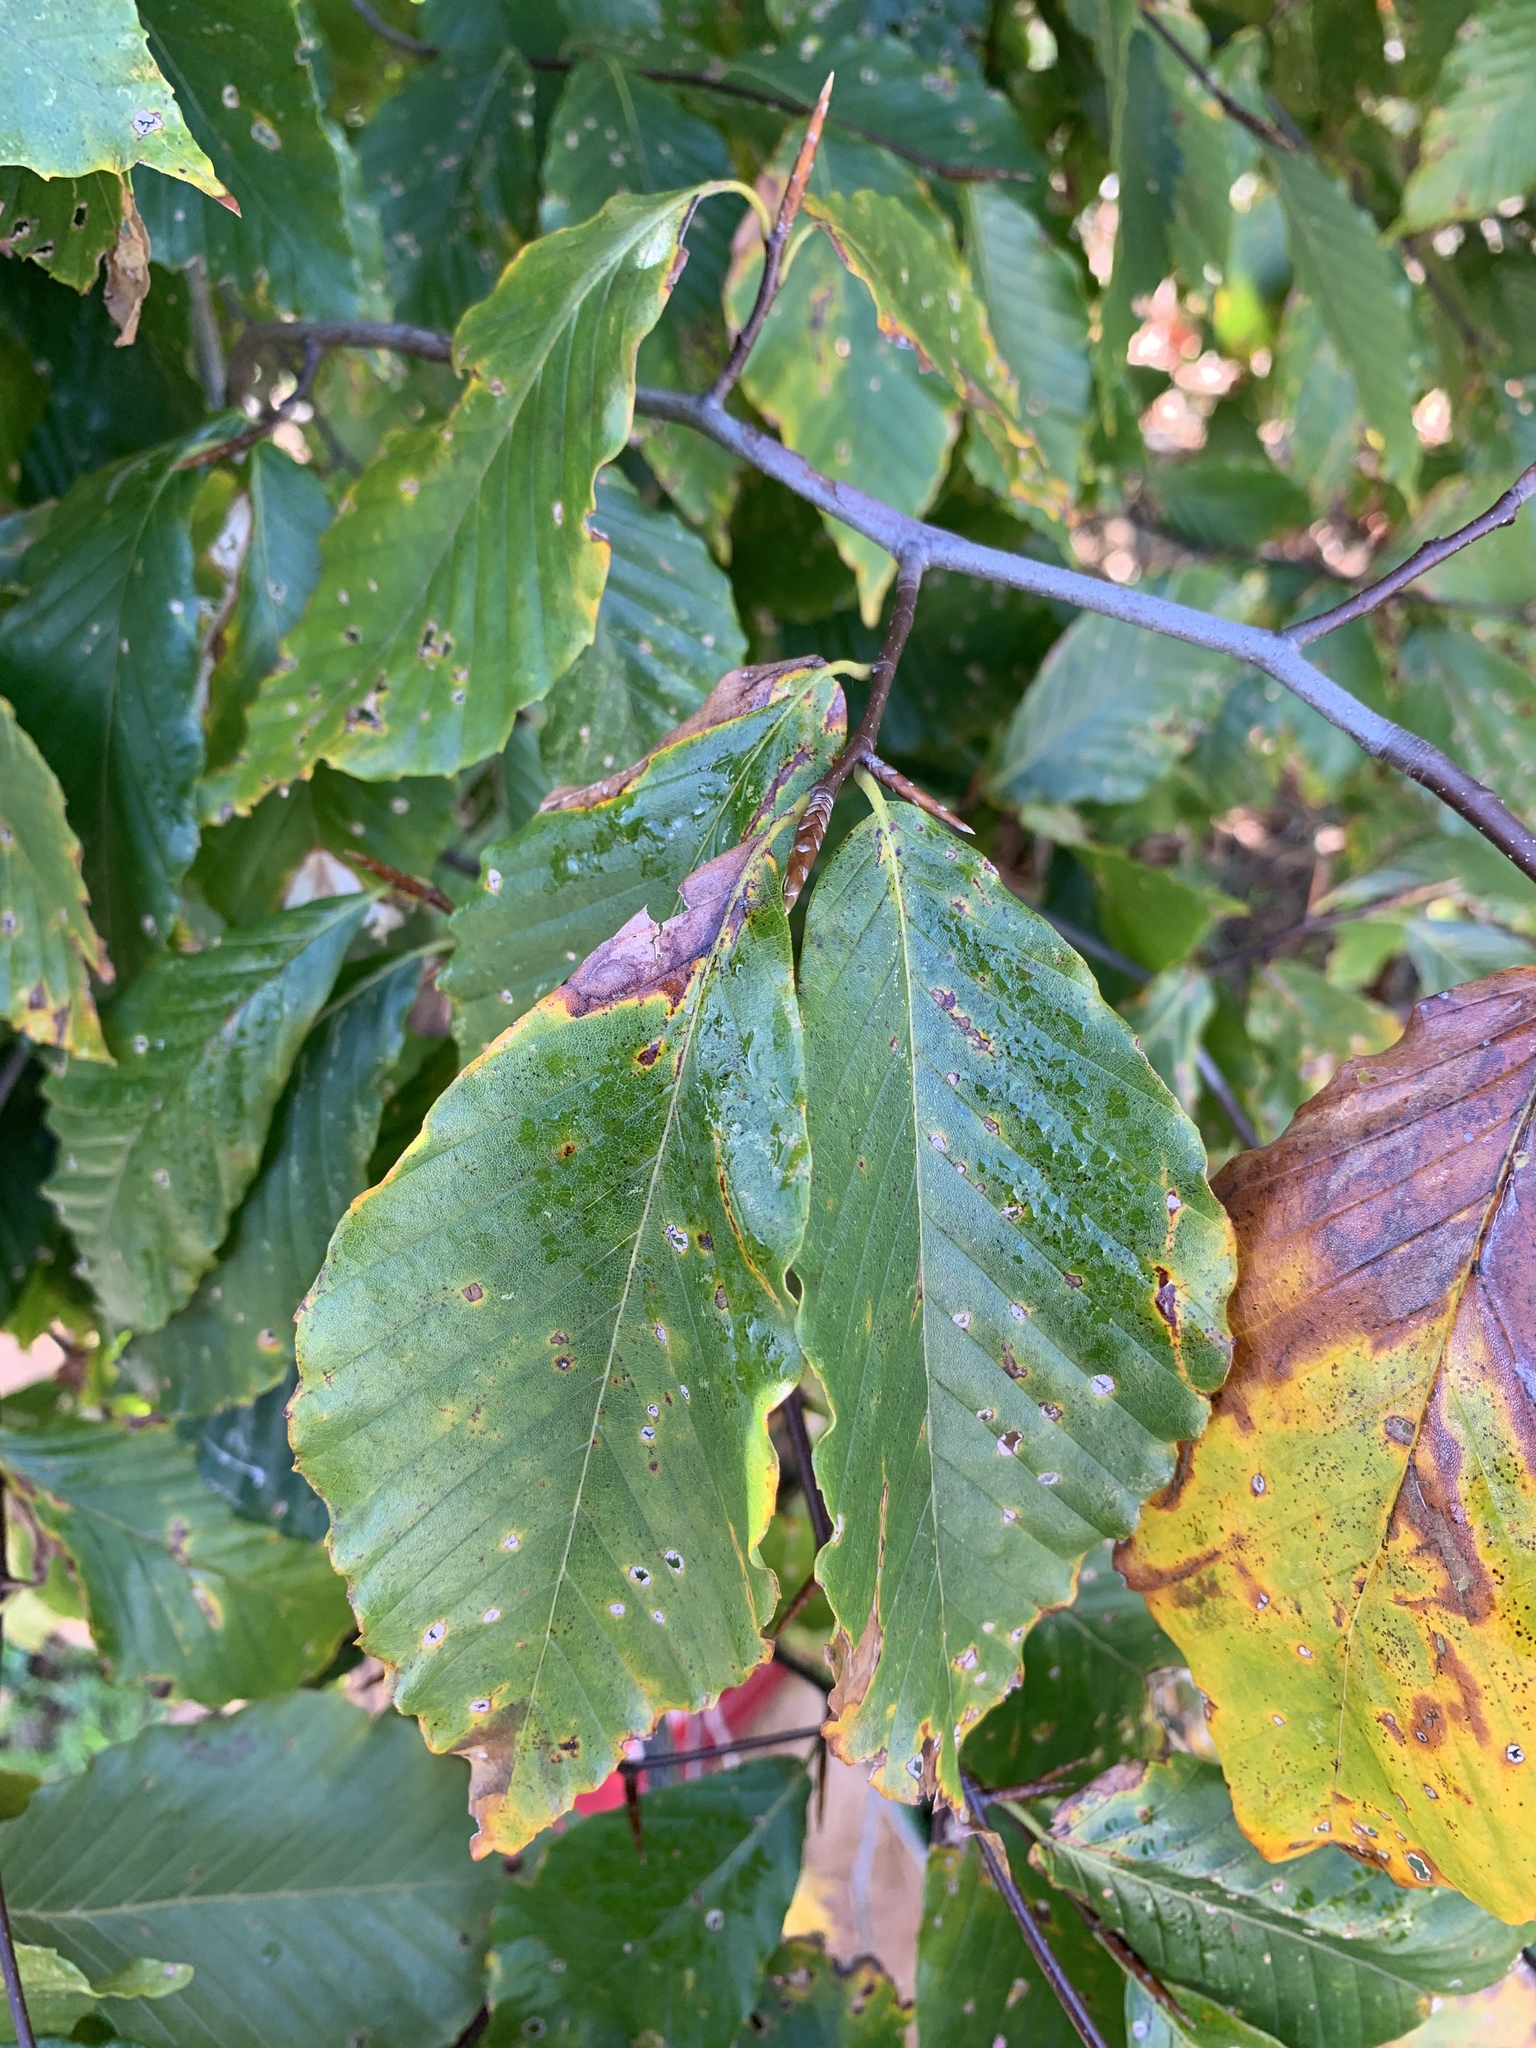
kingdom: Plantae
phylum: Tracheophyta
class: Magnoliopsida
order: Fagales
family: Fagaceae
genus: Fagus
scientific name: Fagus grandifolia
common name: American beech
